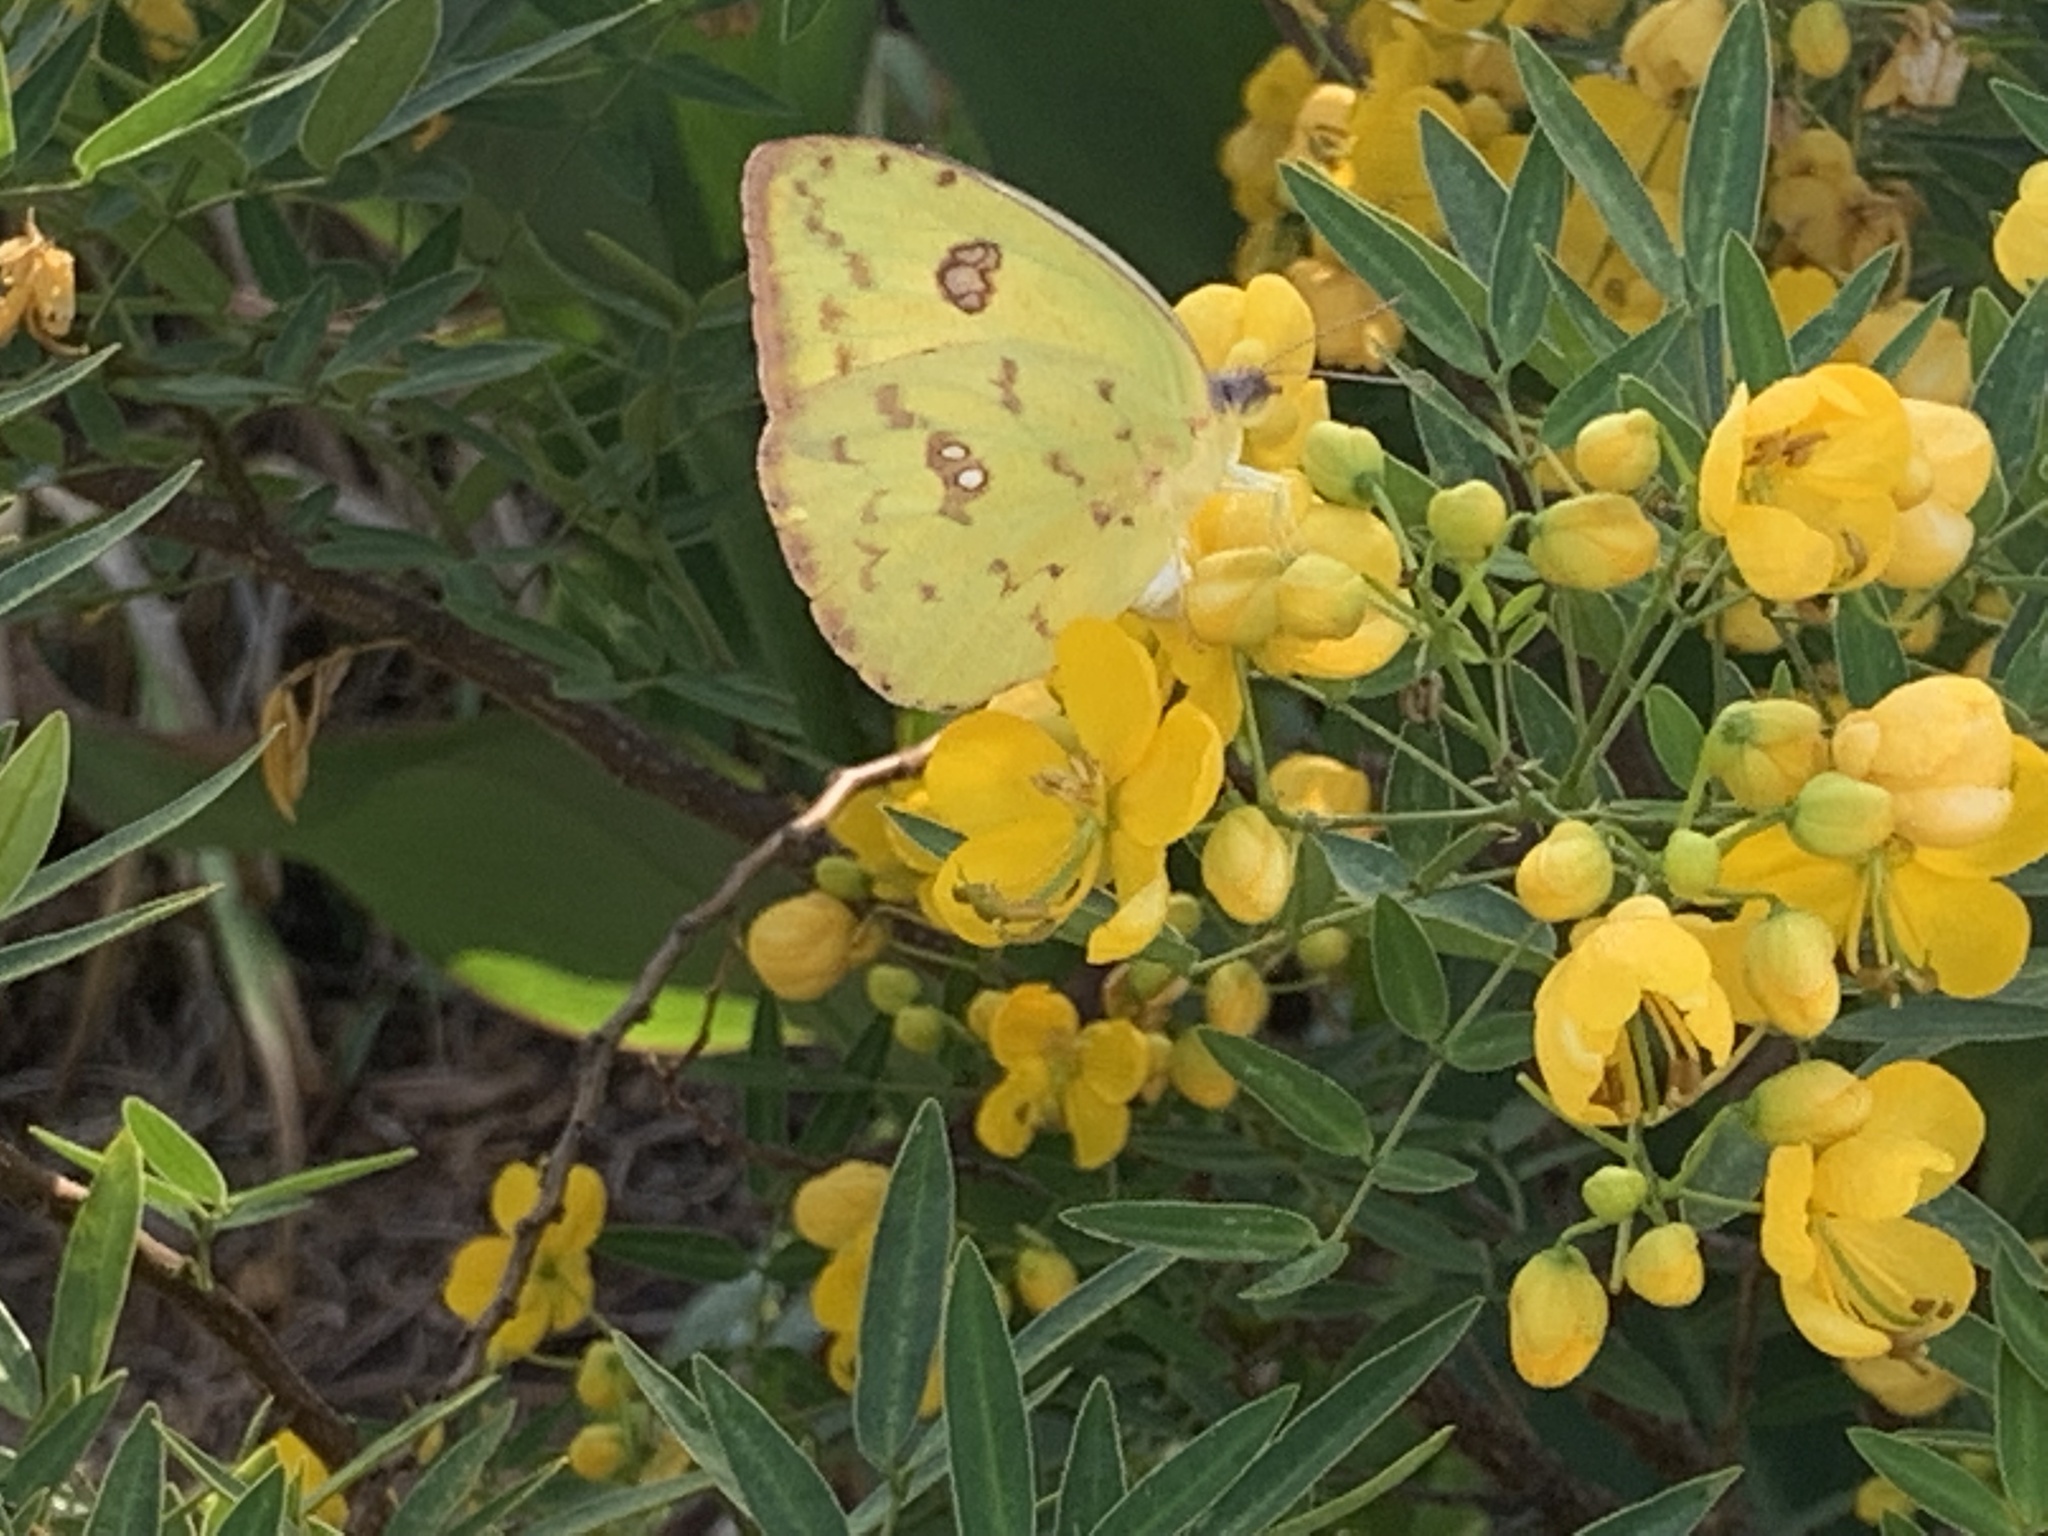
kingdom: Animalia
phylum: Arthropoda
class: Insecta
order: Lepidoptera
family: Pieridae
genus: Phoebis
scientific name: Phoebis sennae
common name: Cloudless sulphur
